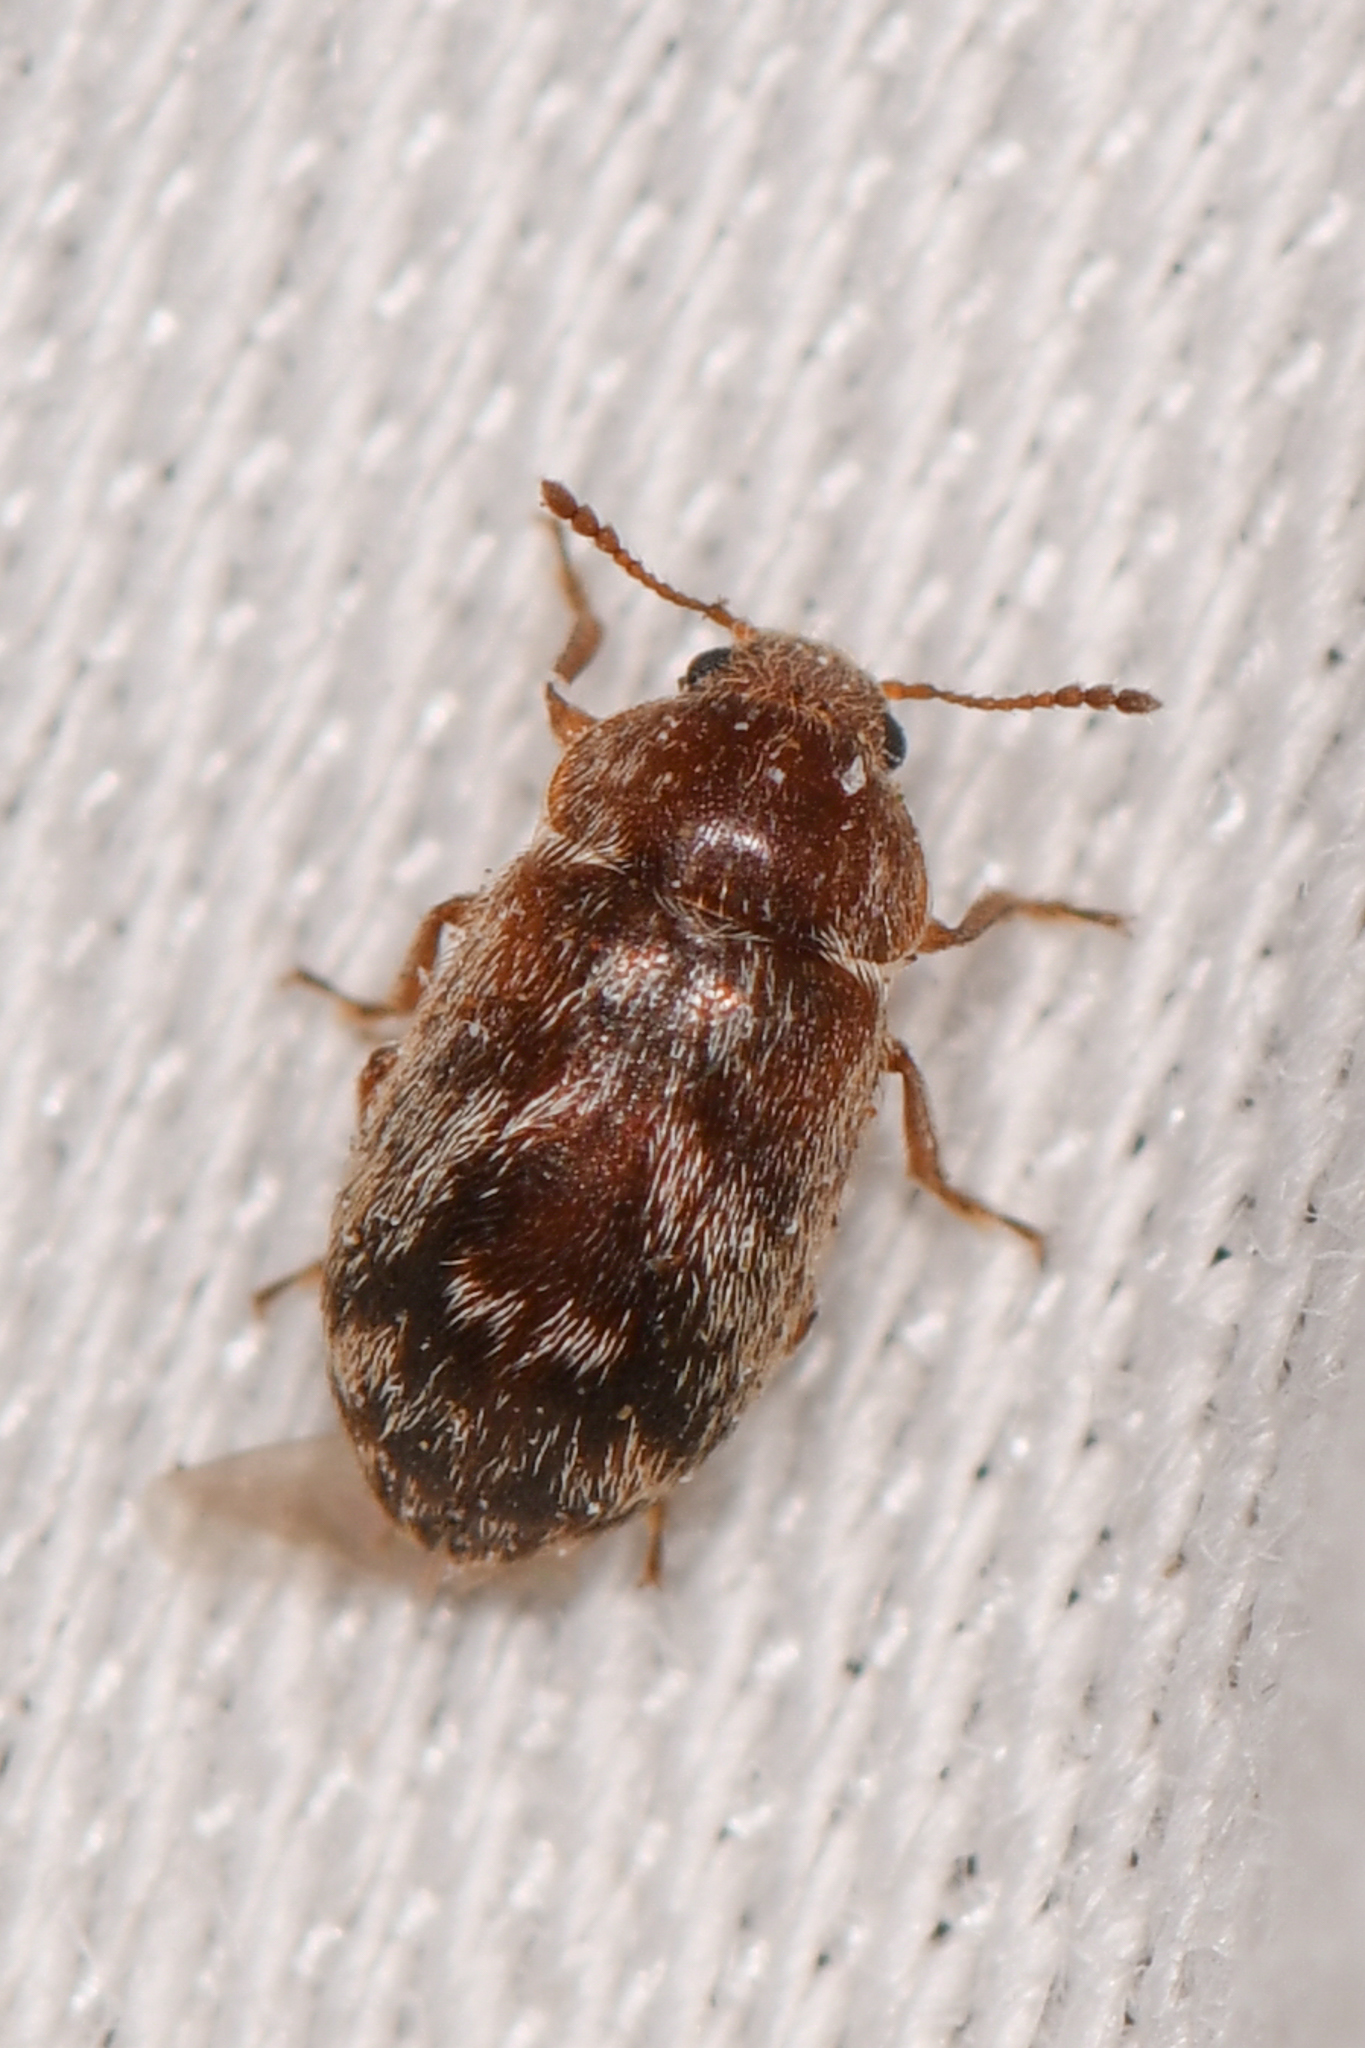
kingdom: Animalia
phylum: Arthropoda
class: Insecta
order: Coleoptera
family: Byturidae
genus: Xerasia
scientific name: Xerasia grisescens
